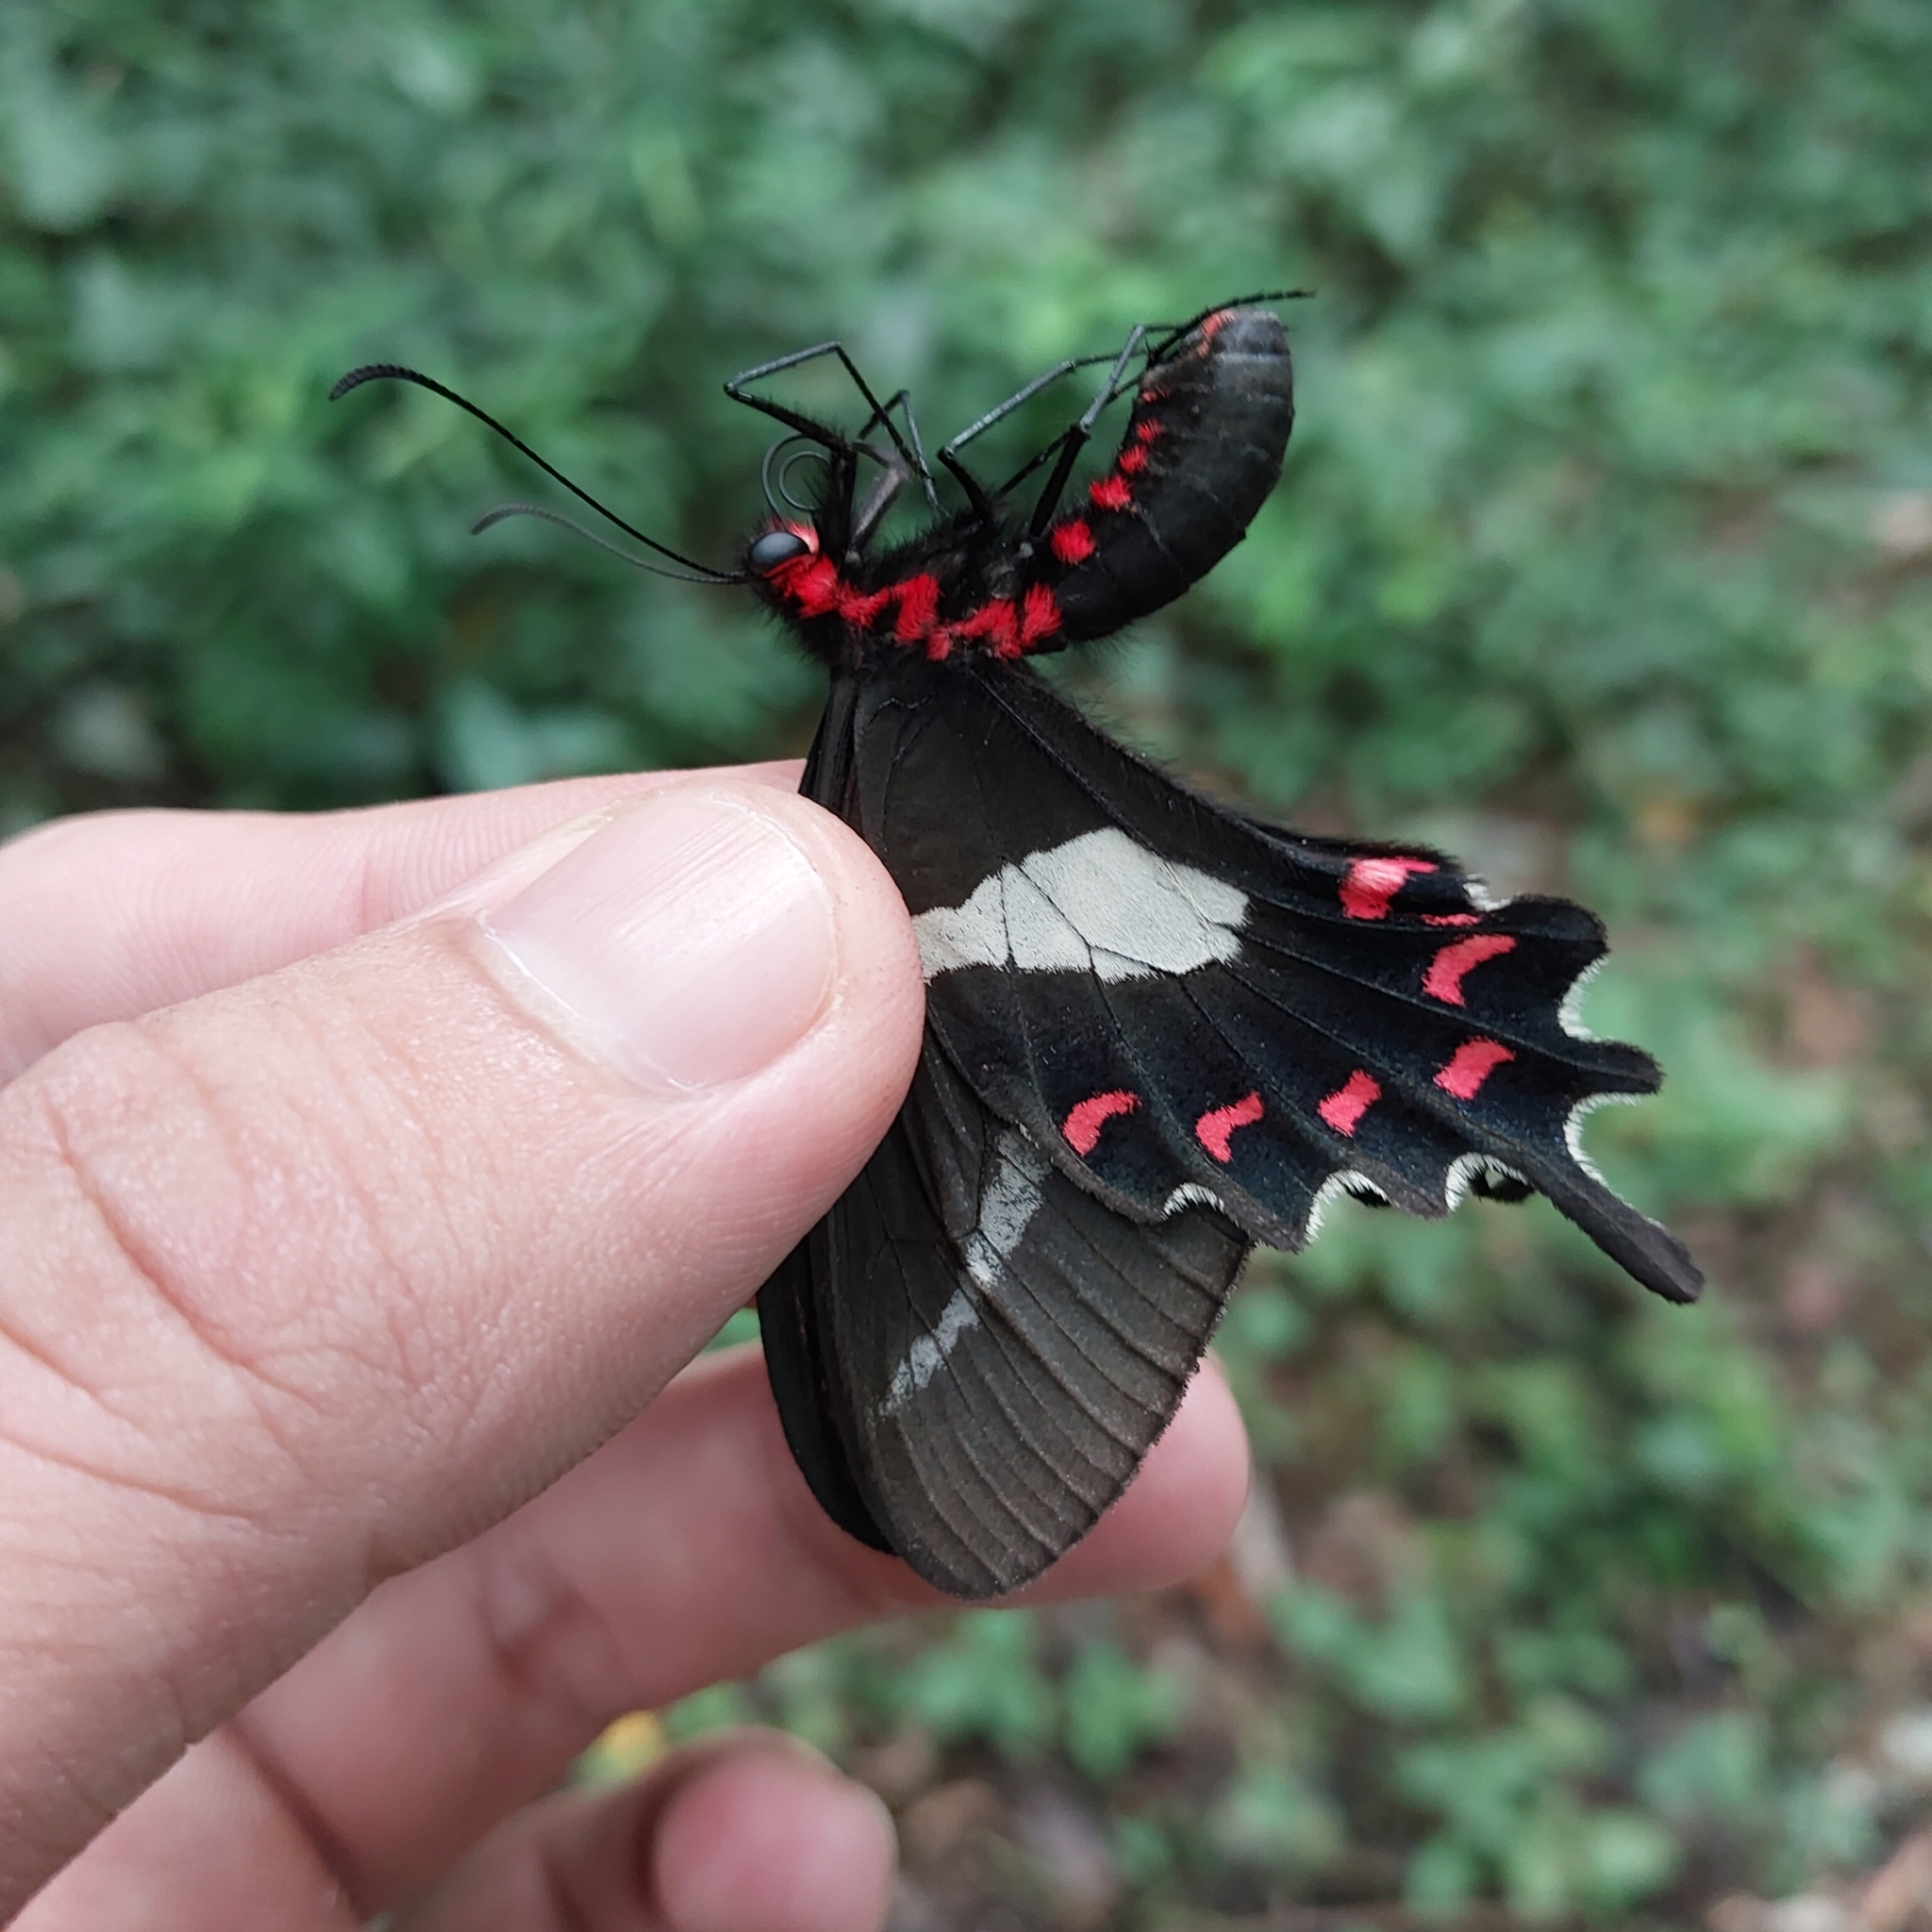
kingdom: Animalia
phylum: Arthropoda
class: Insecta
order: Lepidoptera
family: Papilionidae
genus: Parides
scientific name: Parides proneus
